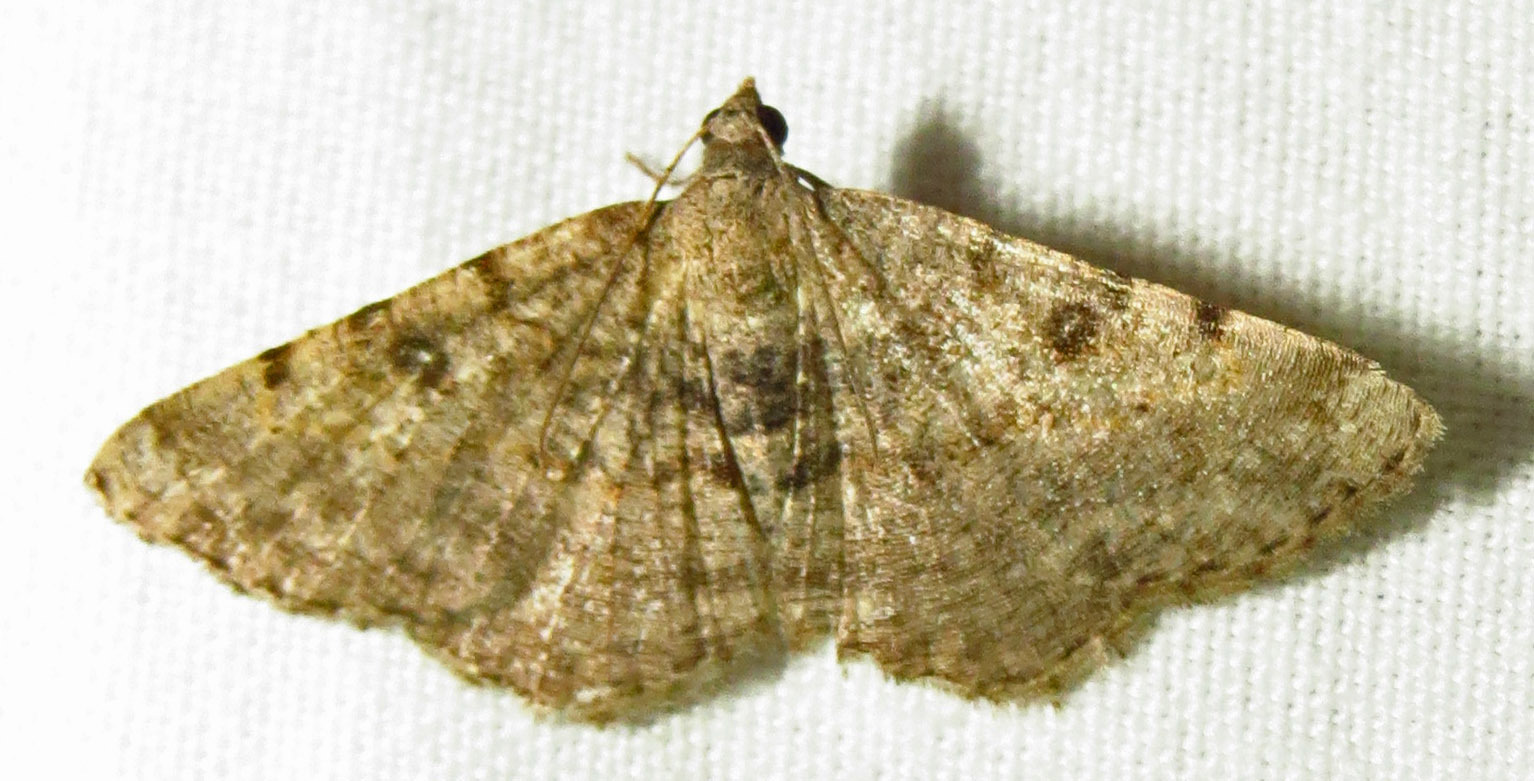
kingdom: Animalia
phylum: Arthropoda
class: Insecta
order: Lepidoptera
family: Geometridae
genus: Digrammia
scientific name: Digrammia gnophosaria
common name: Hollow-spotted angle
